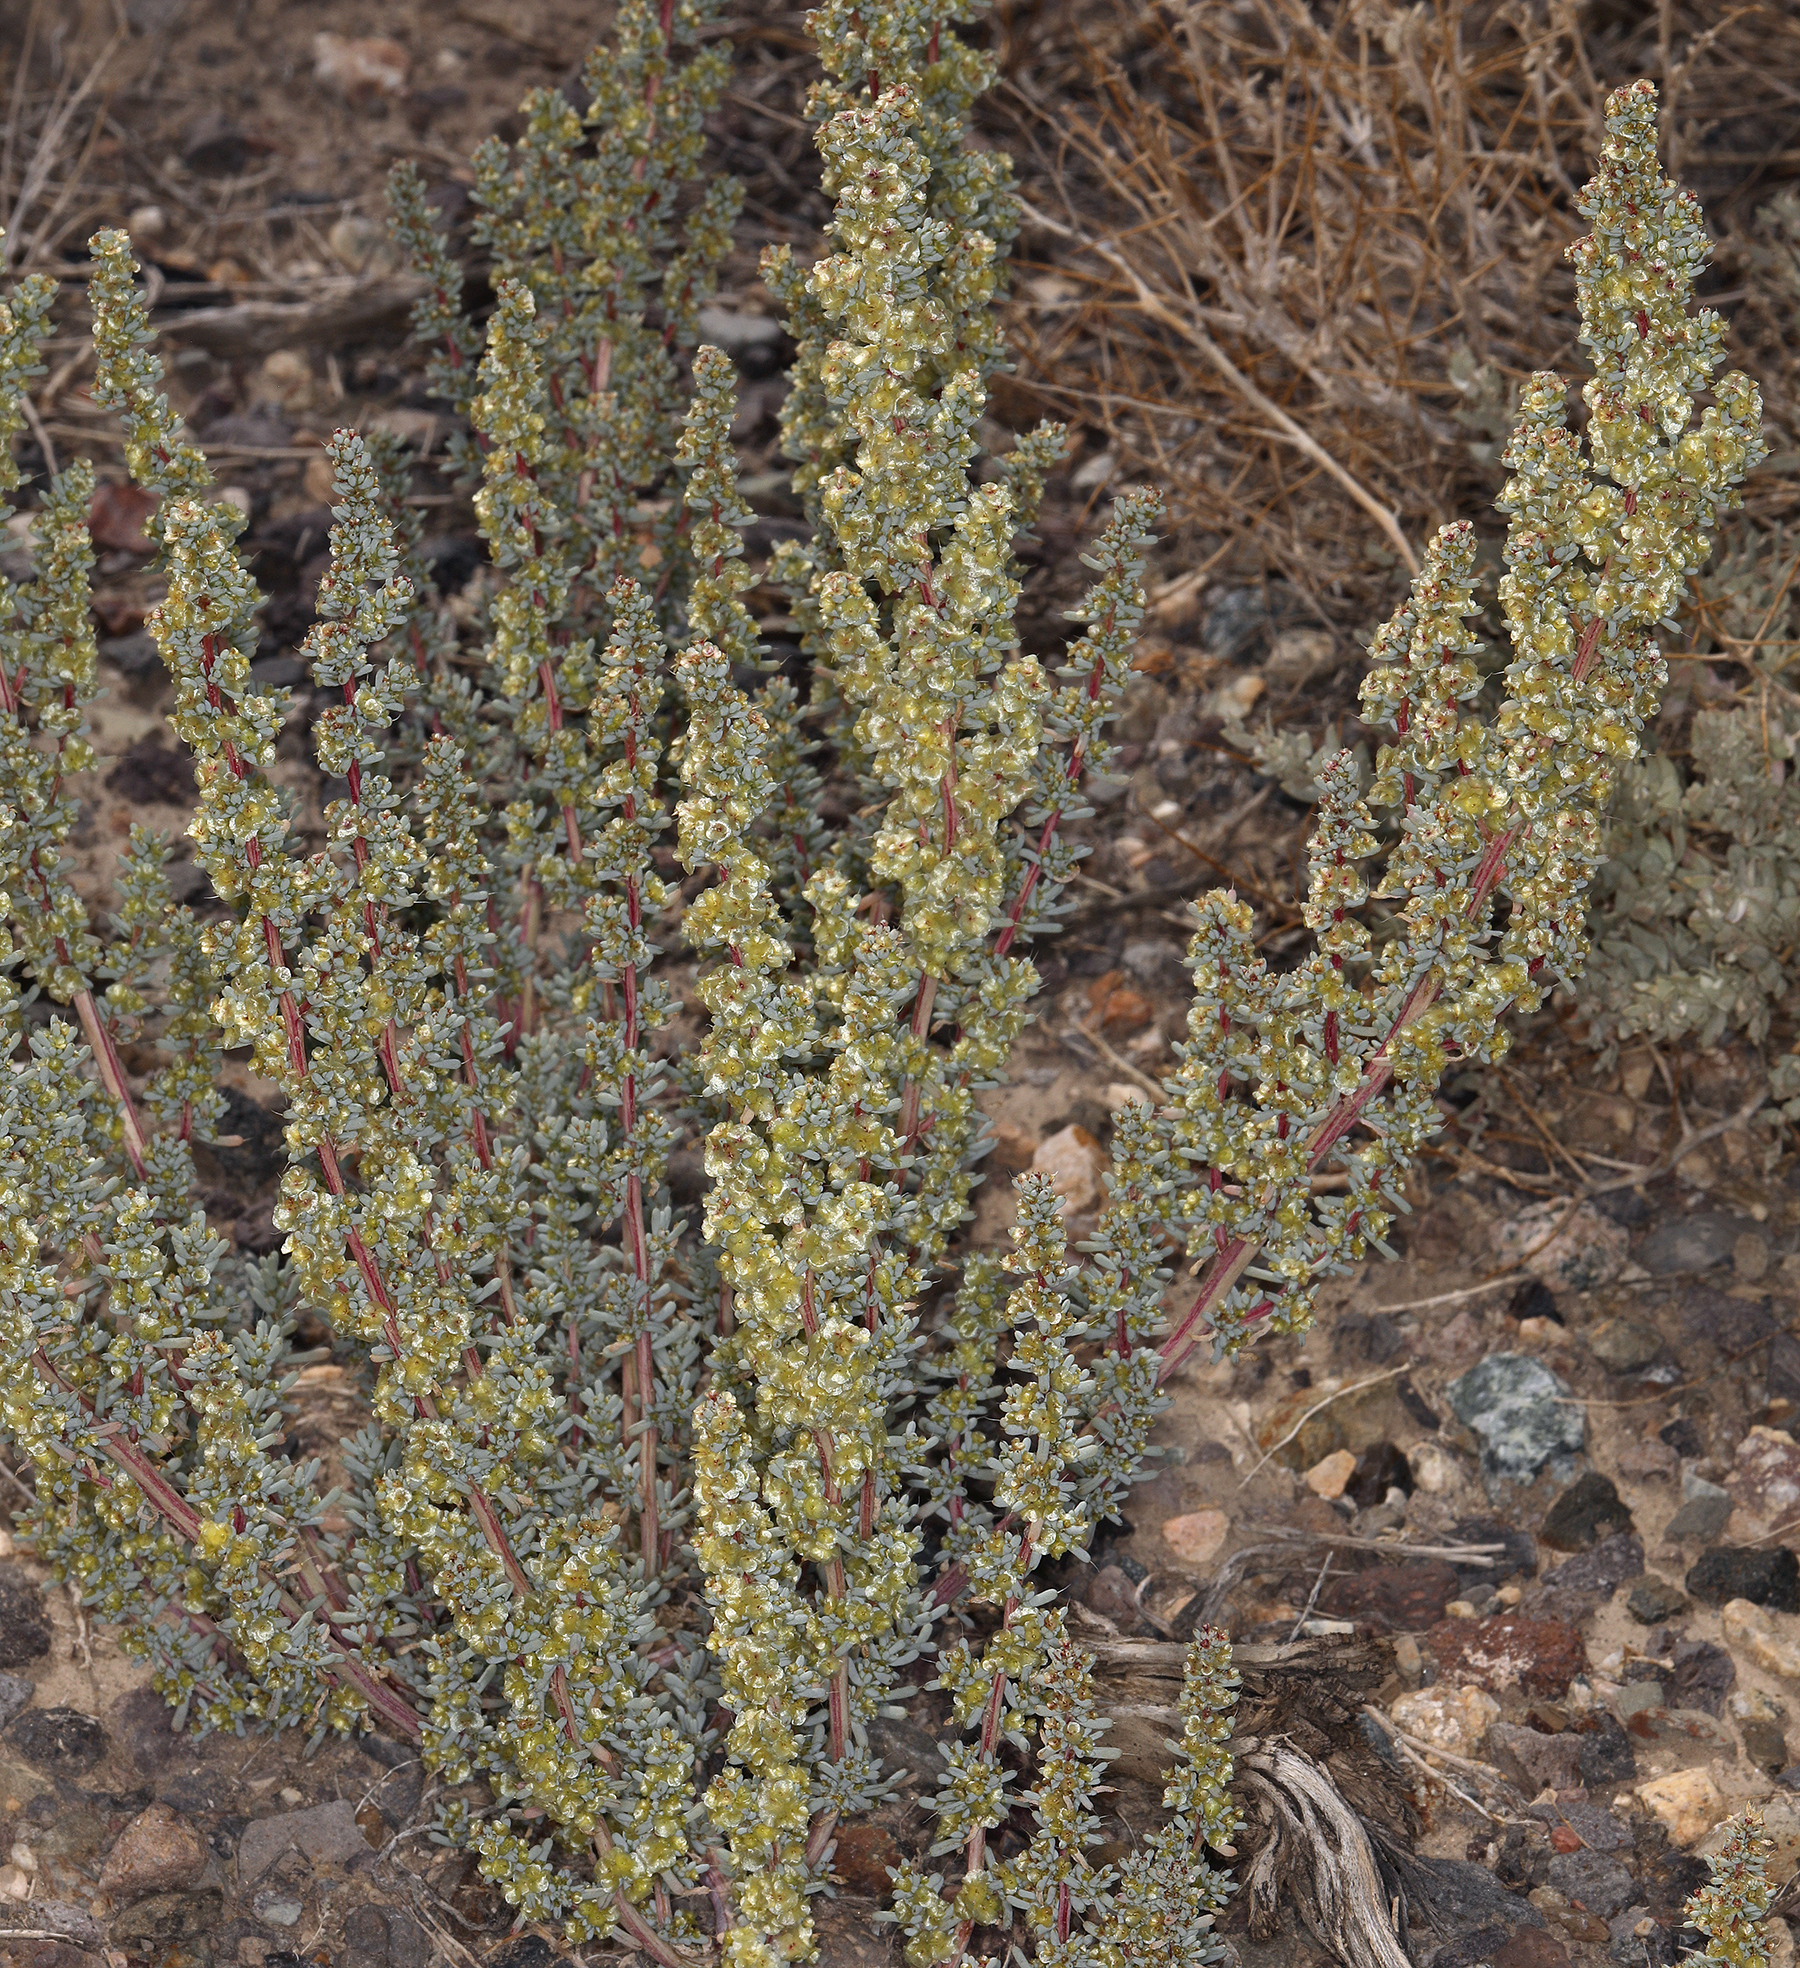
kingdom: Plantae
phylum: Tracheophyta
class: Magnoliopsida
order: Caryophyllales
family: Amaranthaceae
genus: Halogeton
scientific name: Halogeton glomeratus
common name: Saltlover
